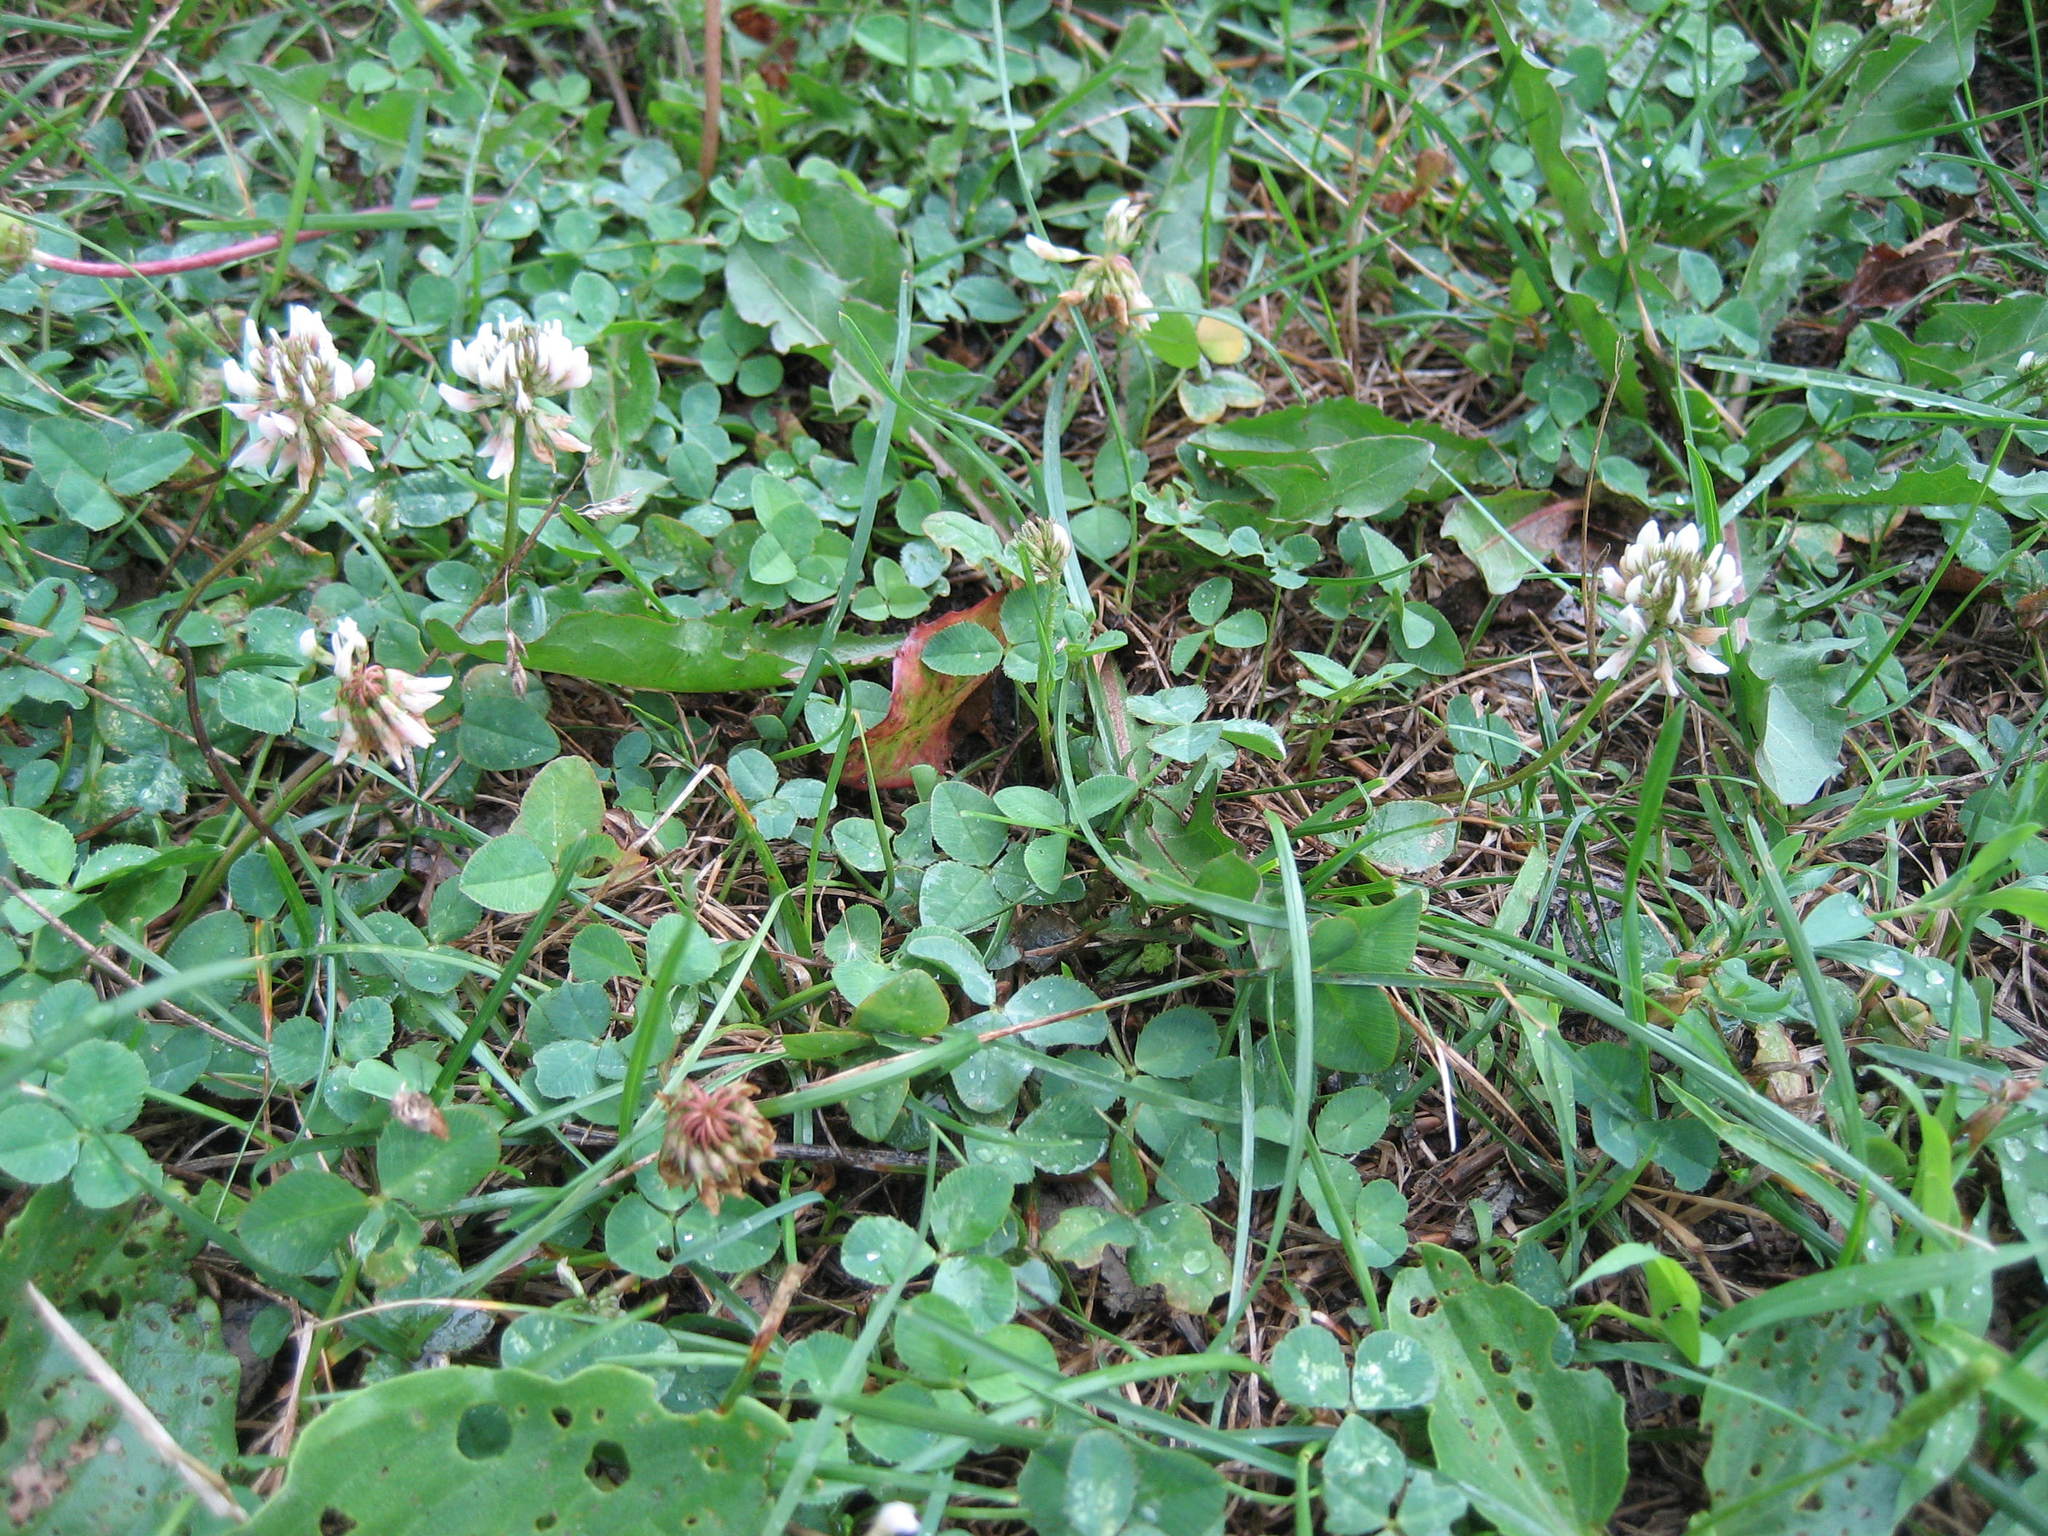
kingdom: Plantae
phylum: Tracheophyta
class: Magnoliopsida
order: Fabales
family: Fabaceae
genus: Trifolium
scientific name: Trifolium repens
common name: White clover
